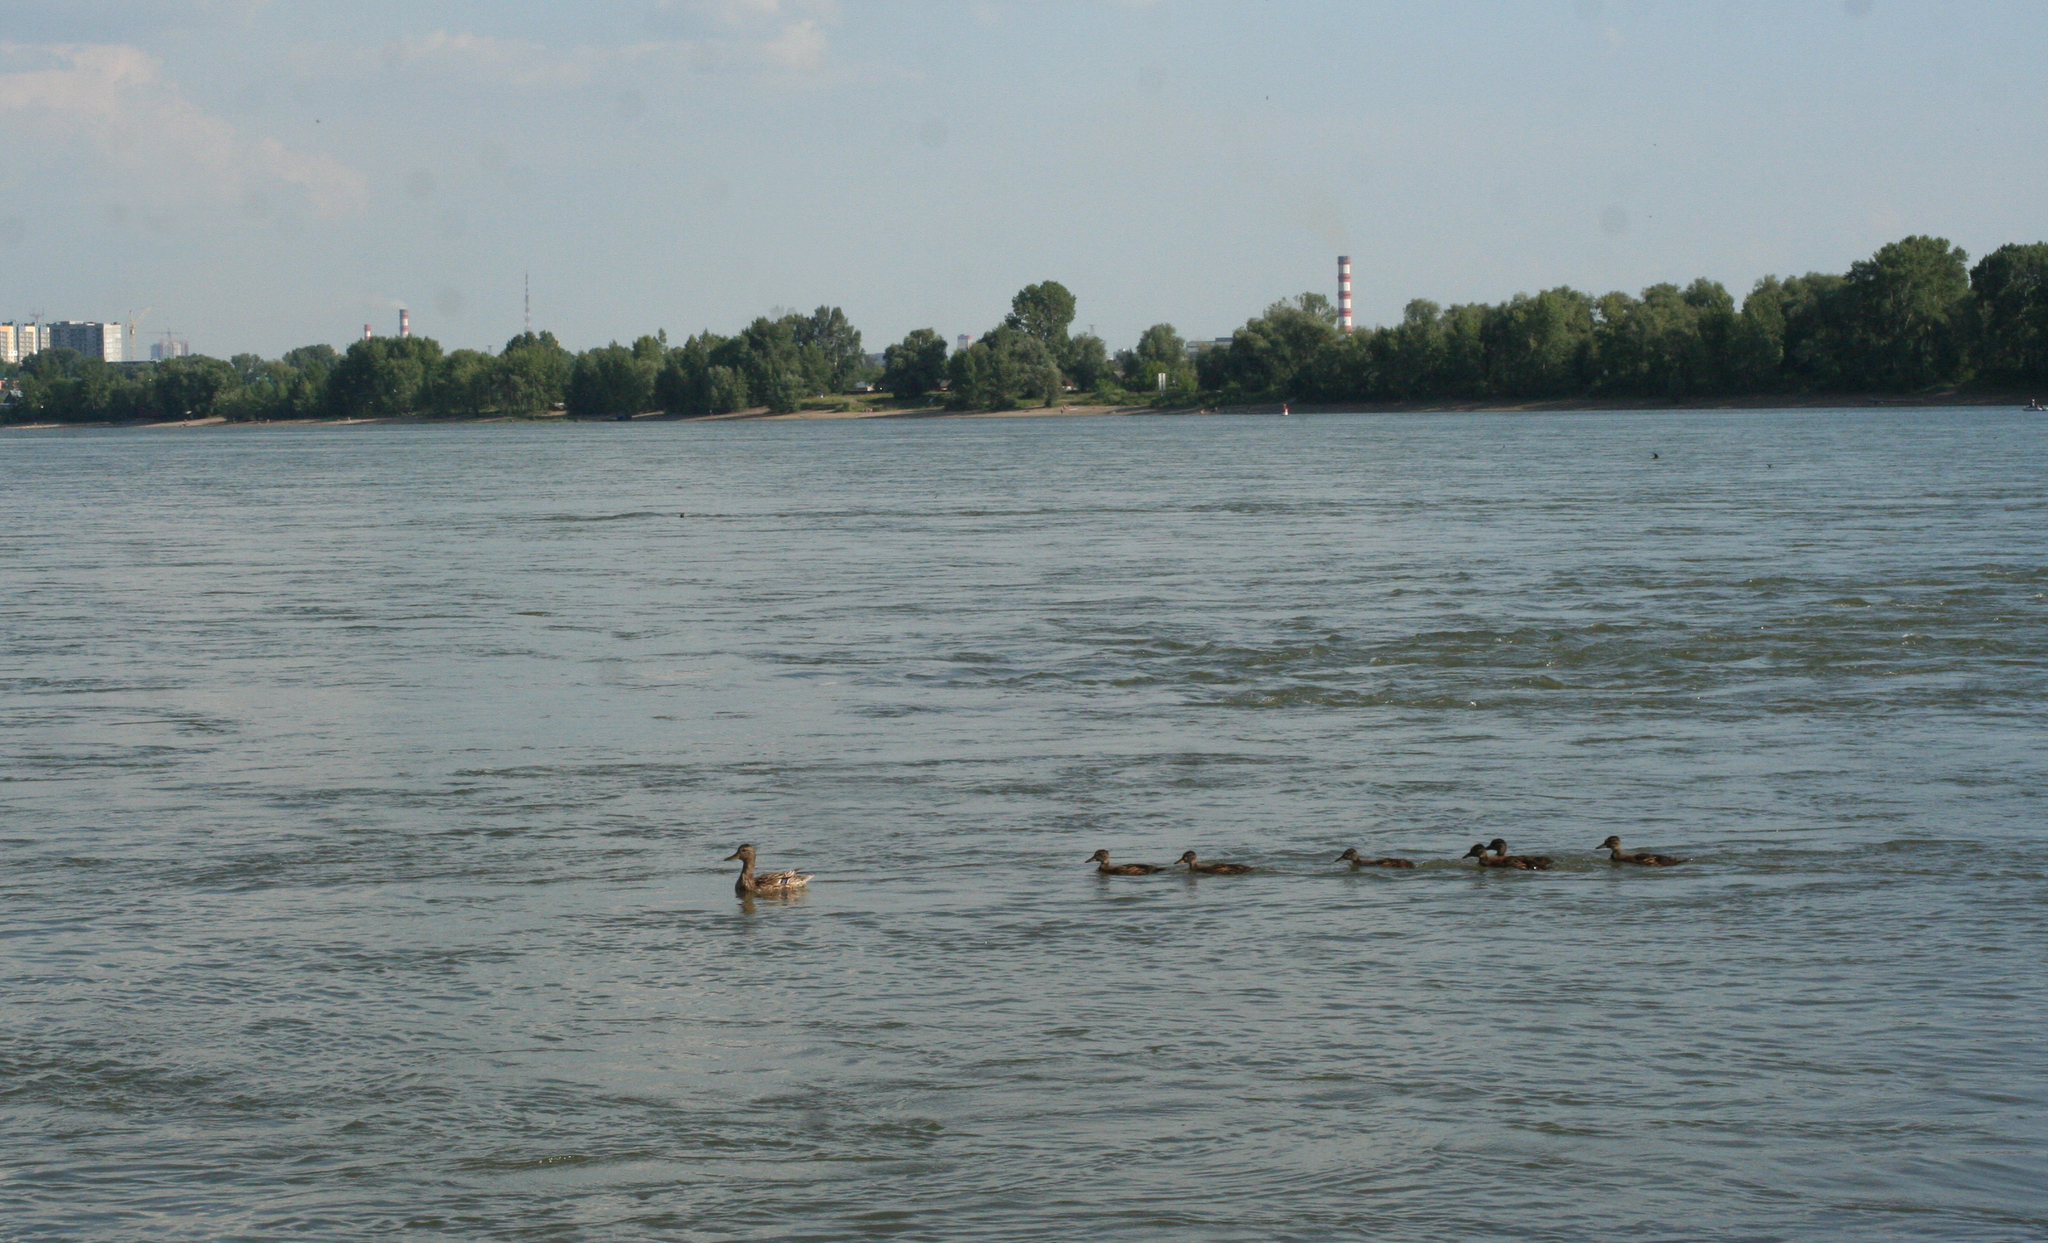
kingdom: Animalia
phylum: Chordata
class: Aves
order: Anseriformes
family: Anatidae
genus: Anas
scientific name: Anas platyrhynchos
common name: Mallard
